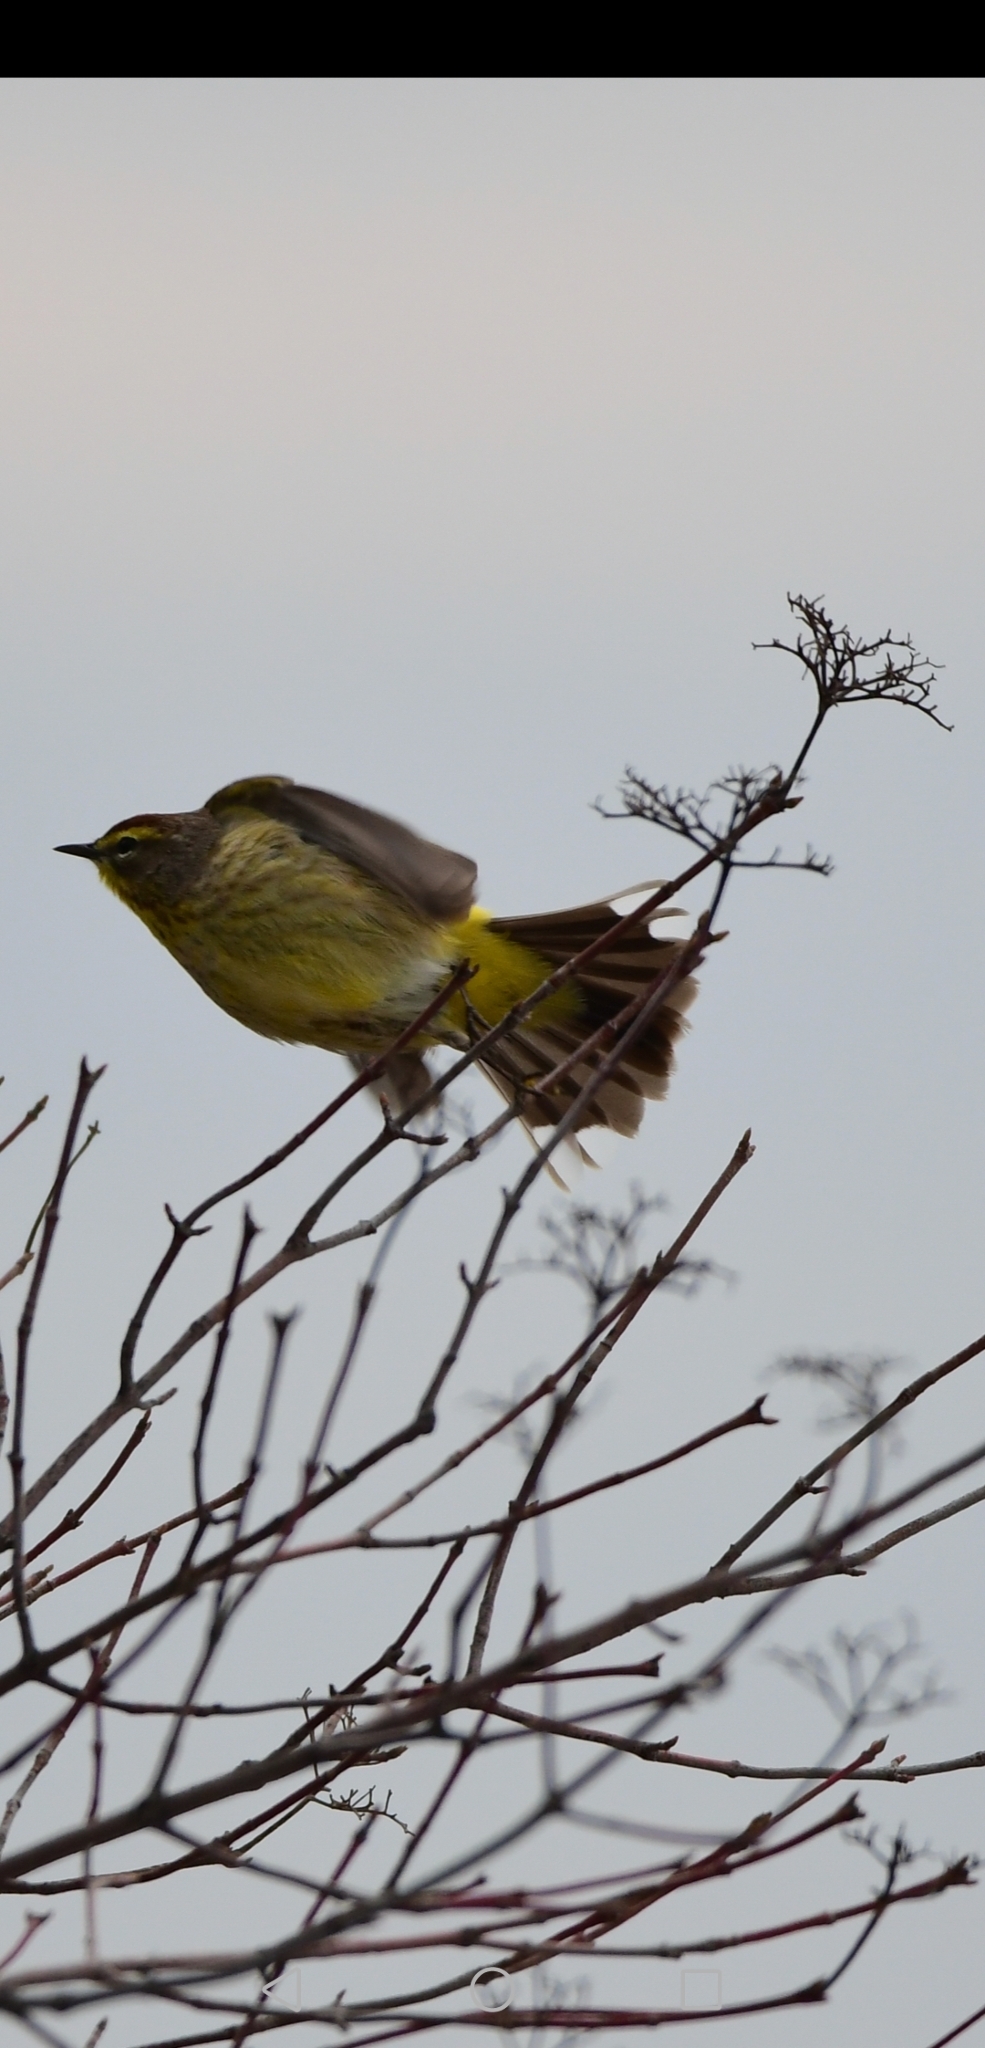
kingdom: Animalia
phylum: Chordata
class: Aves
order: Passeriformes
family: Parulidae
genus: Setophaga
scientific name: Setophaga palmarum
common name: Palm warbler
